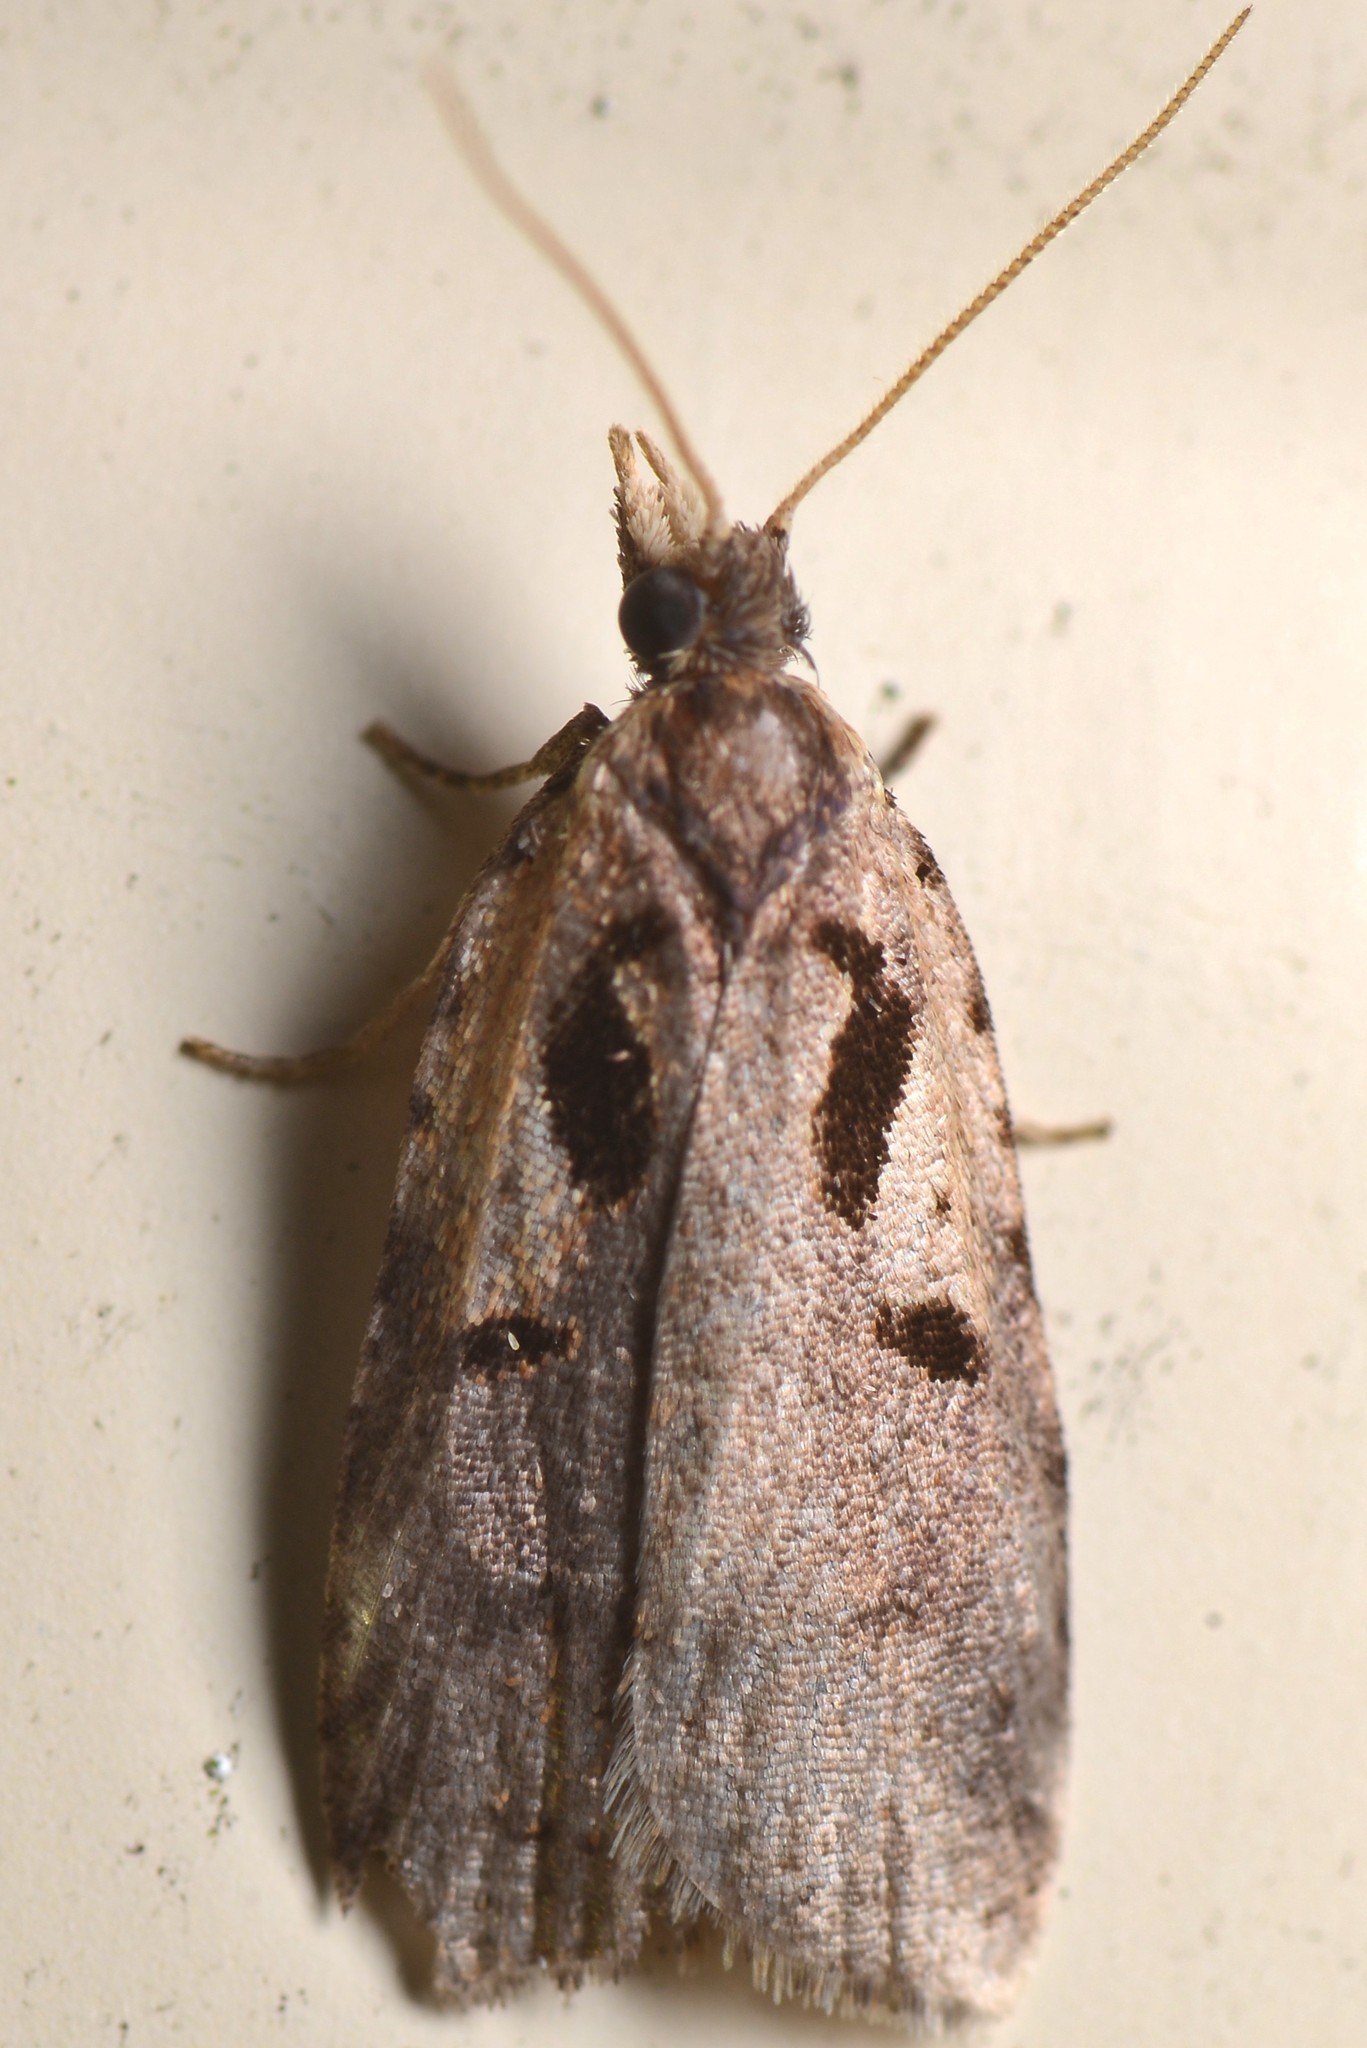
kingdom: Animalia
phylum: Arthropoda
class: Insecta
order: Lepidoptera
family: Tortricidae
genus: Cnephasia
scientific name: Cnephasia jactatana
